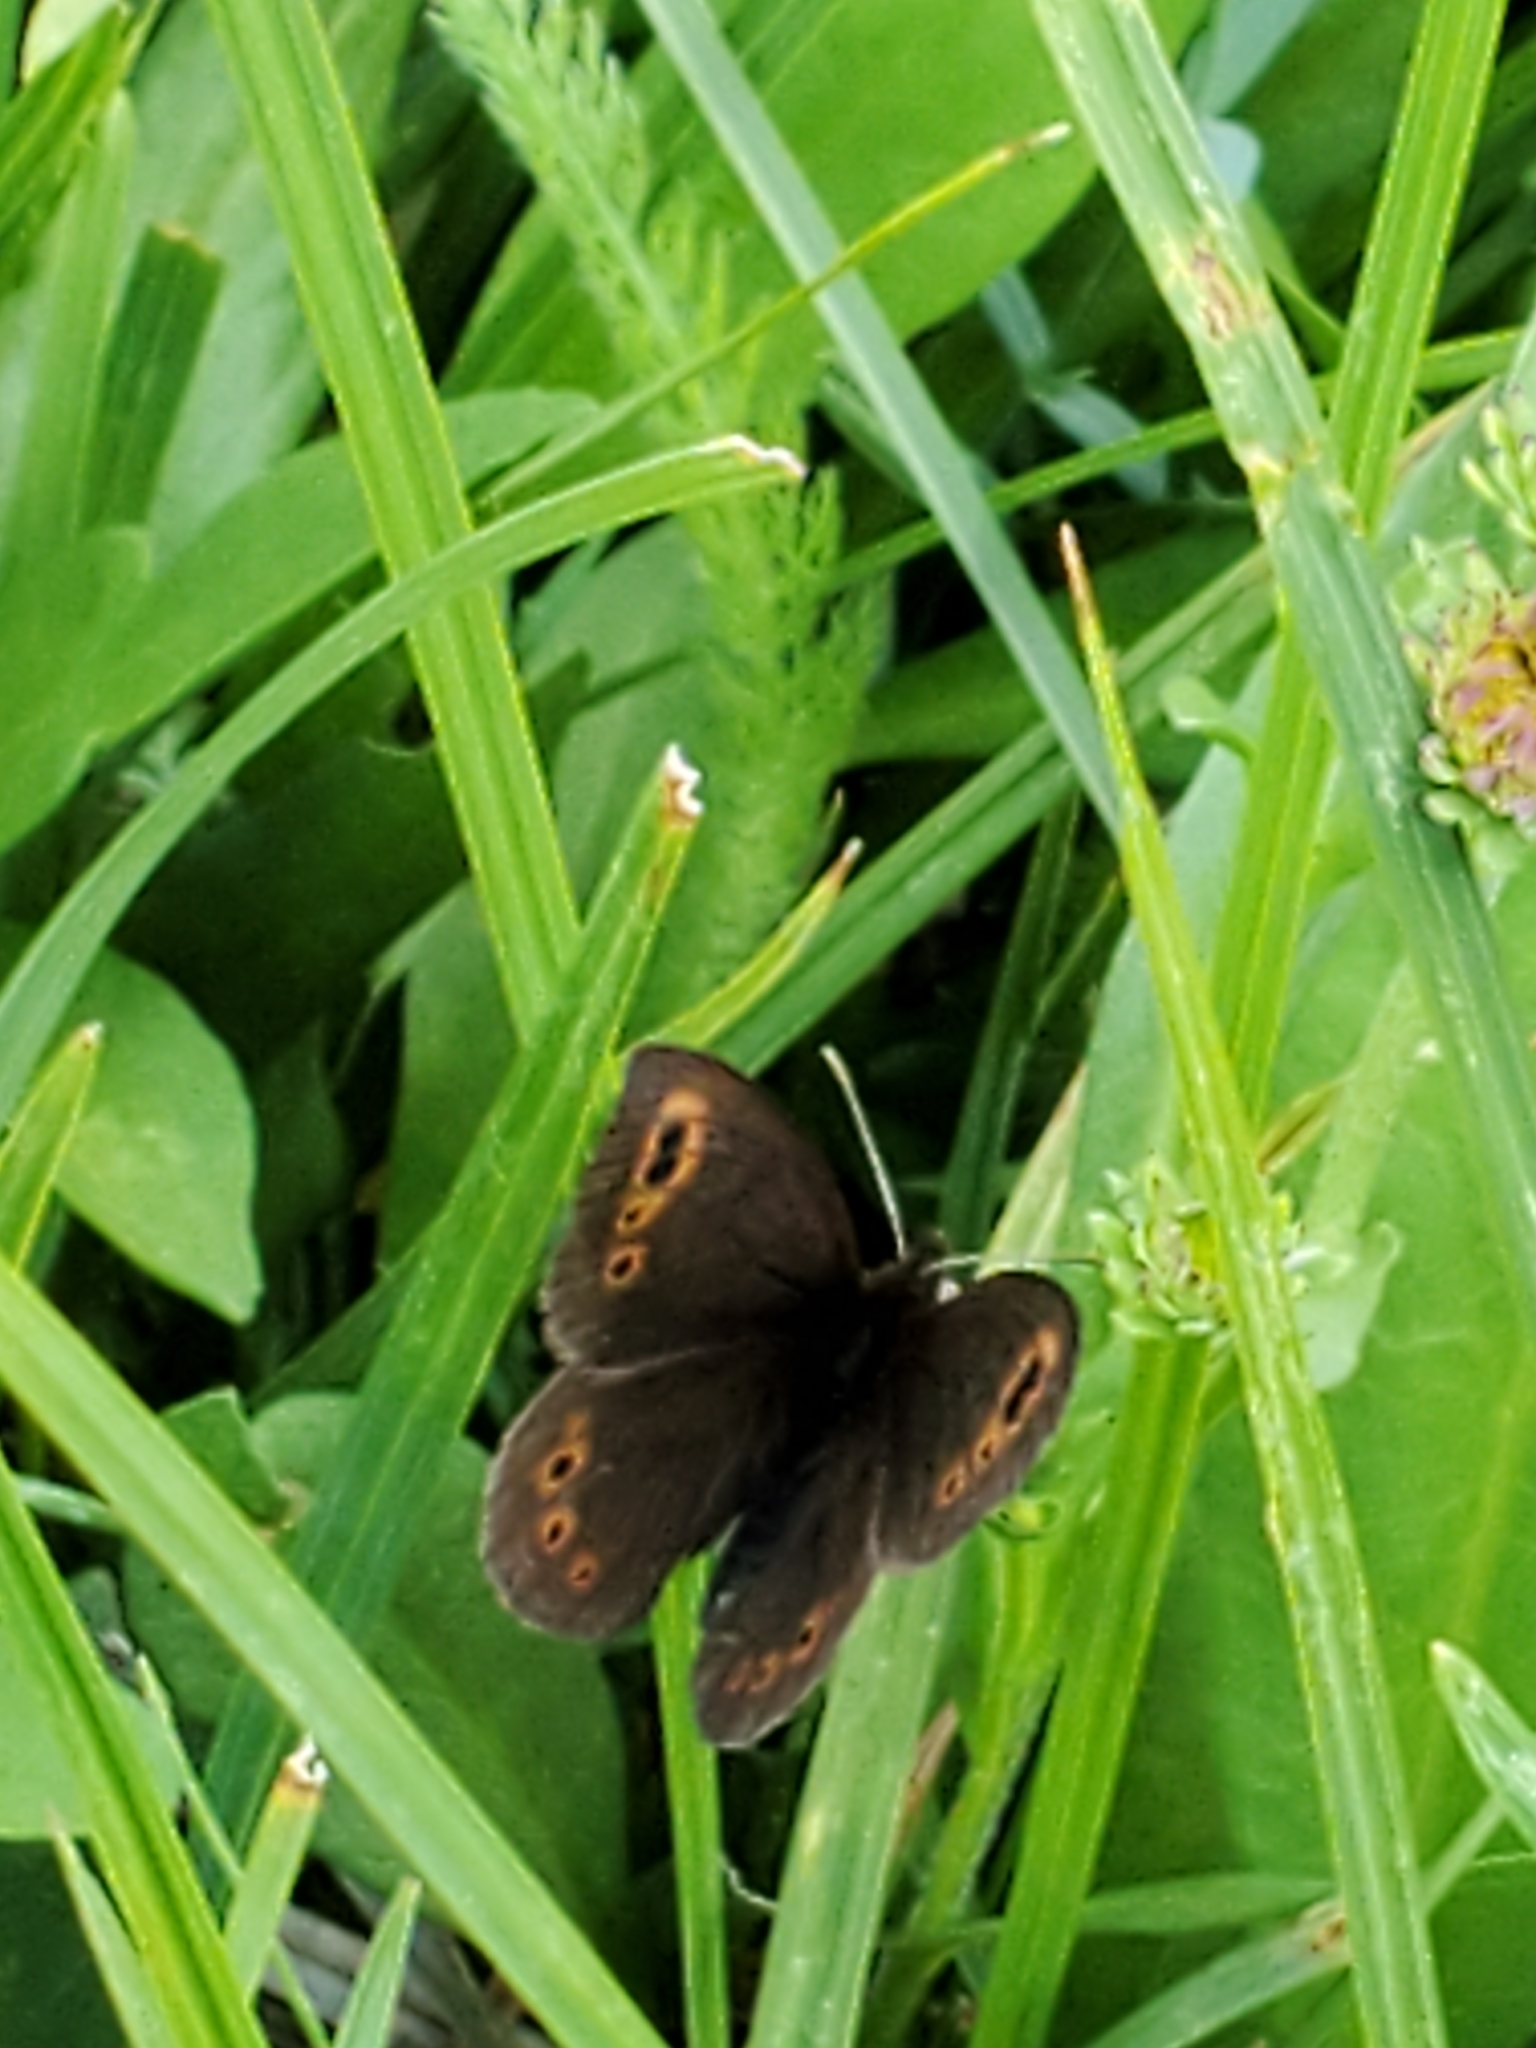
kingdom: Animalia
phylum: Arthropoda
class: Insecta
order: Lepidoptera
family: Nymphalidae
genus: Erebia
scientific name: Erebia epipsodea
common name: Common alpine
